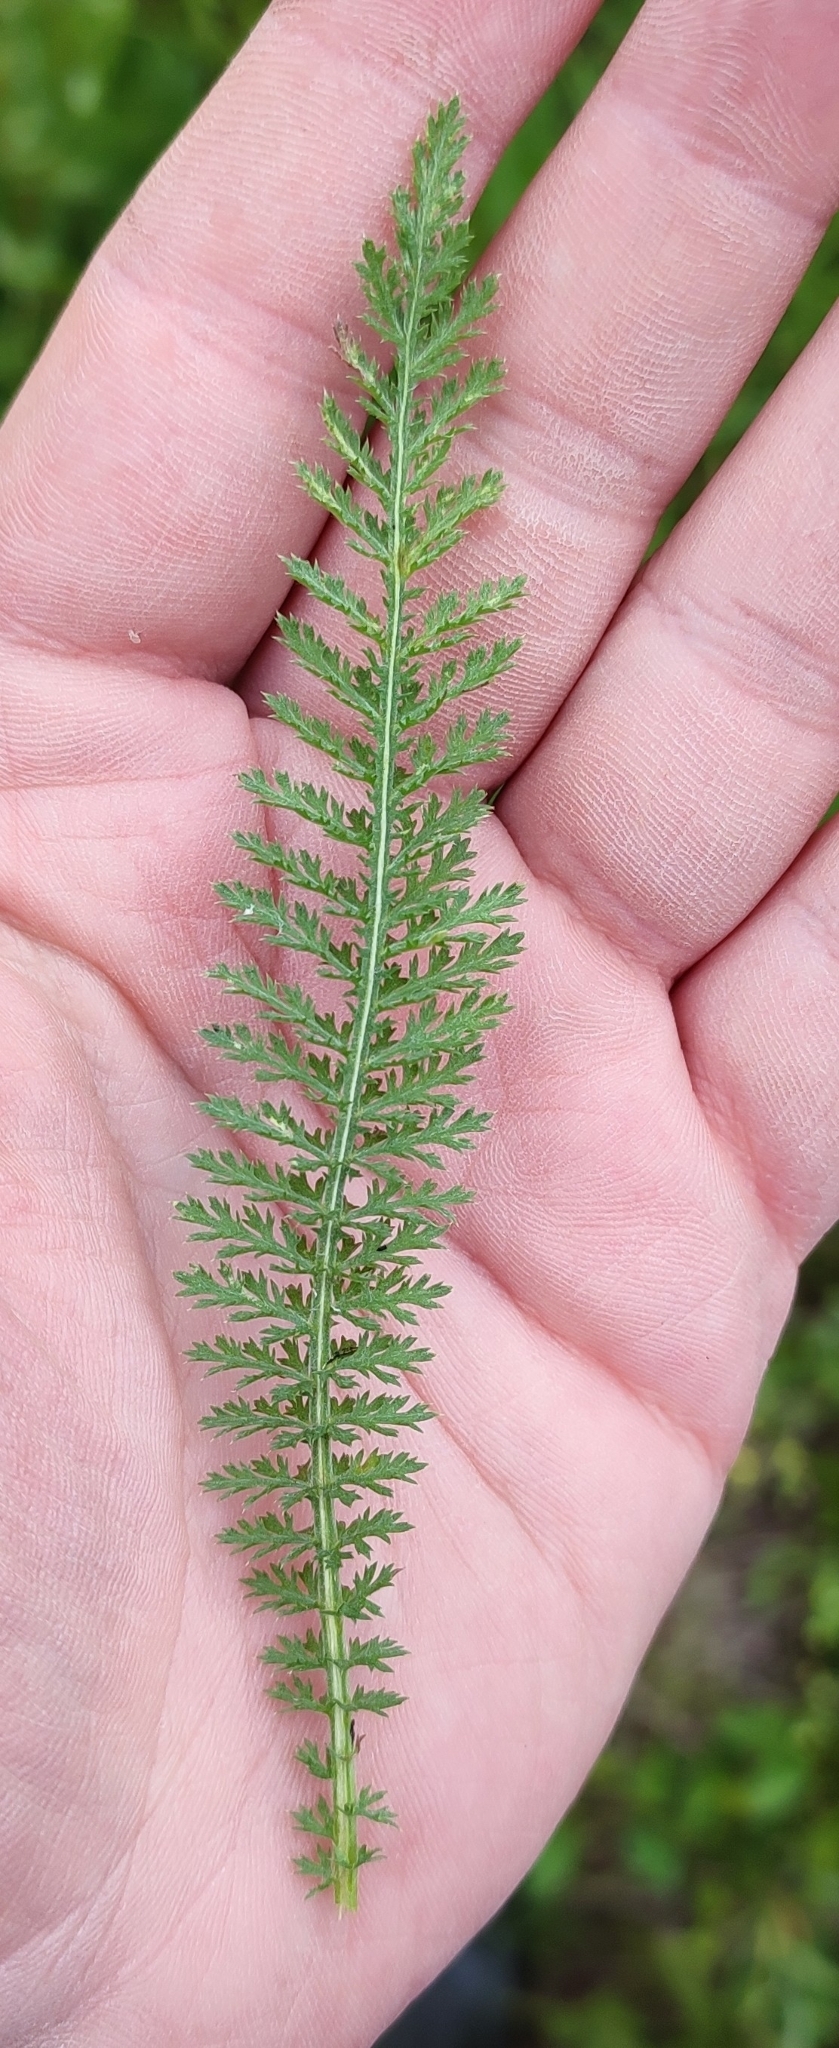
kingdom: Plantae
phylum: Tracheophyta
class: Magnoliopsida
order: Asterales
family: Asteraceae
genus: Achillea
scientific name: Achillea millefolium
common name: Yarrow
